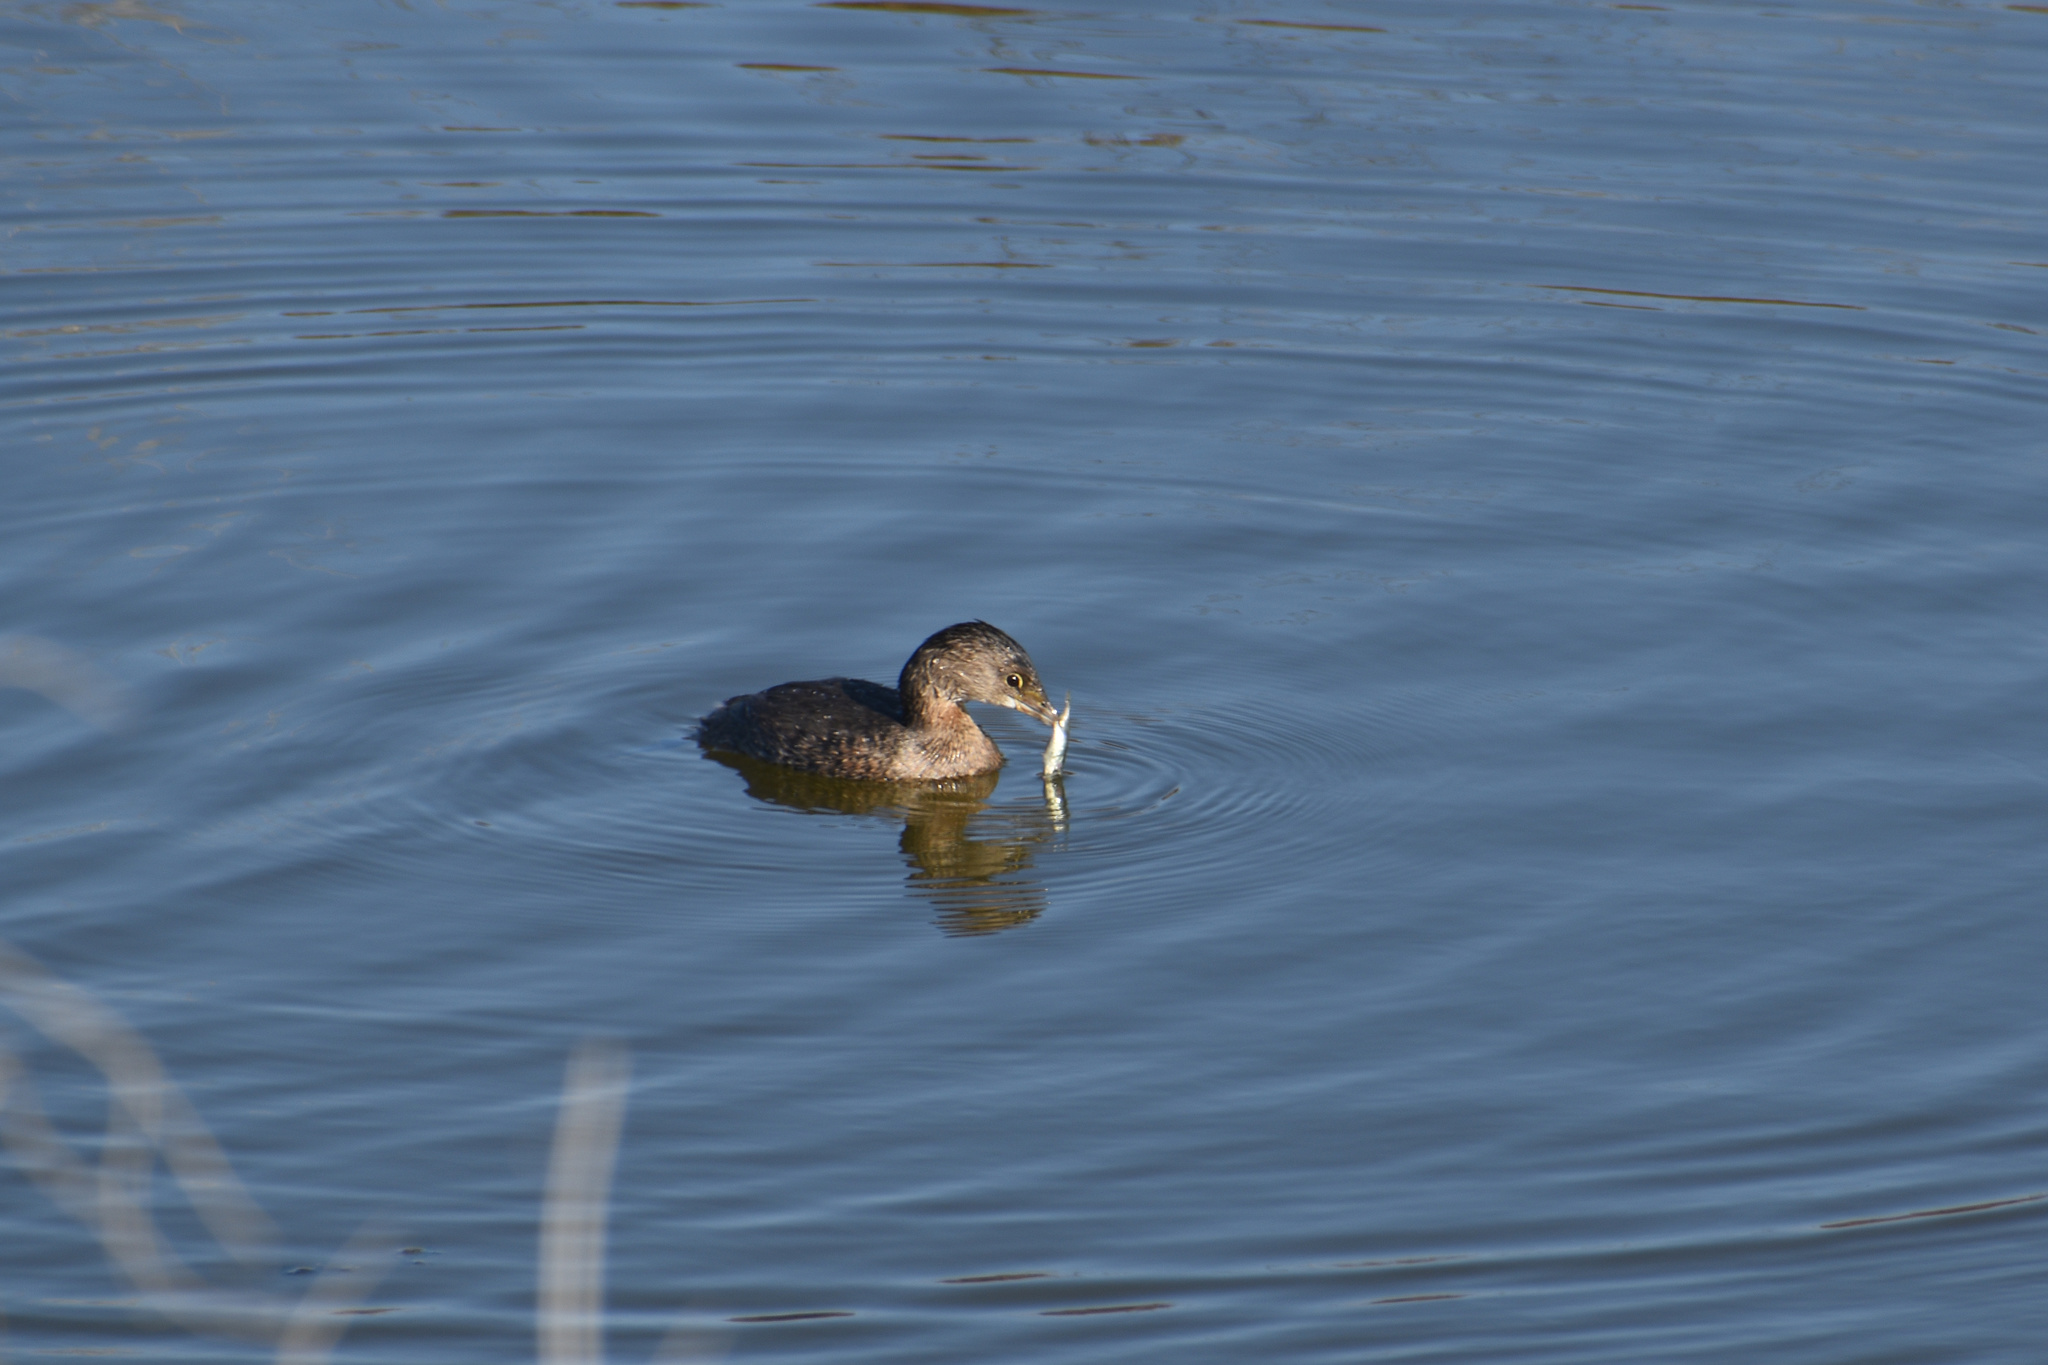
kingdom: Animalia
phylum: Chordata
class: Aves
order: Podicipediformes
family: Podicipedidae
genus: Podilymbus
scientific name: Podilymbus podiceps
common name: Pied-billed grebe
